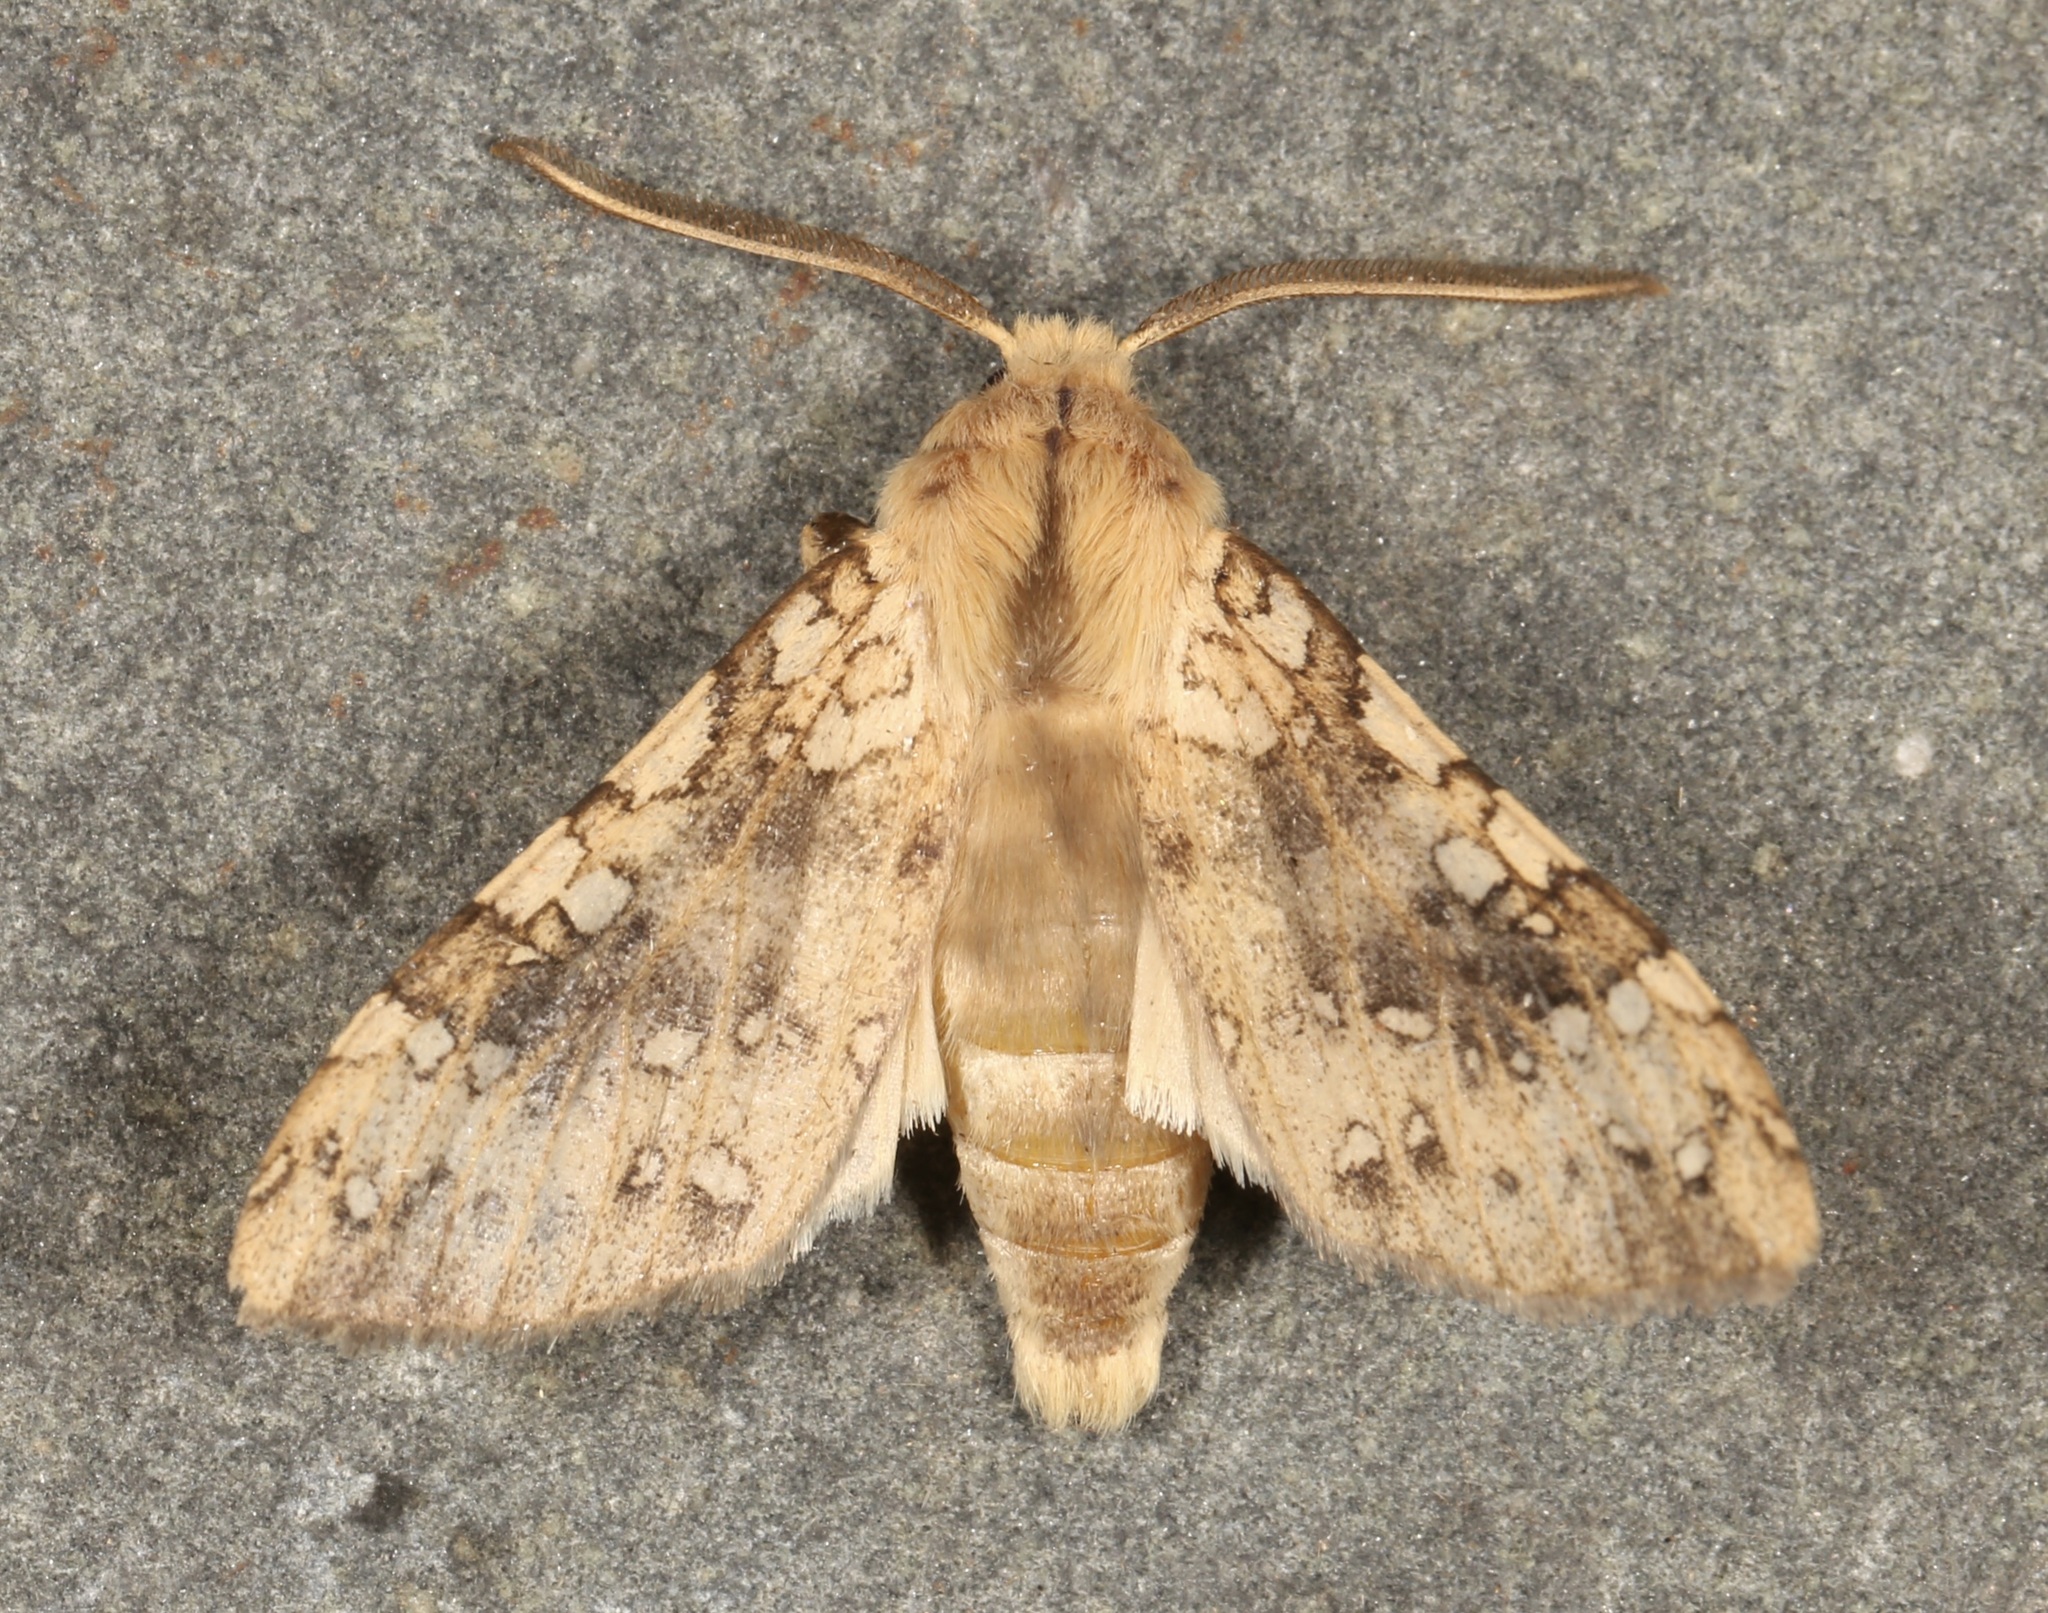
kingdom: Animalia
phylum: Arthropoda
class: Insecta
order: Lepidoptera
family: Erebidae
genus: Hypocrisias
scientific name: Hypocrisias minima
